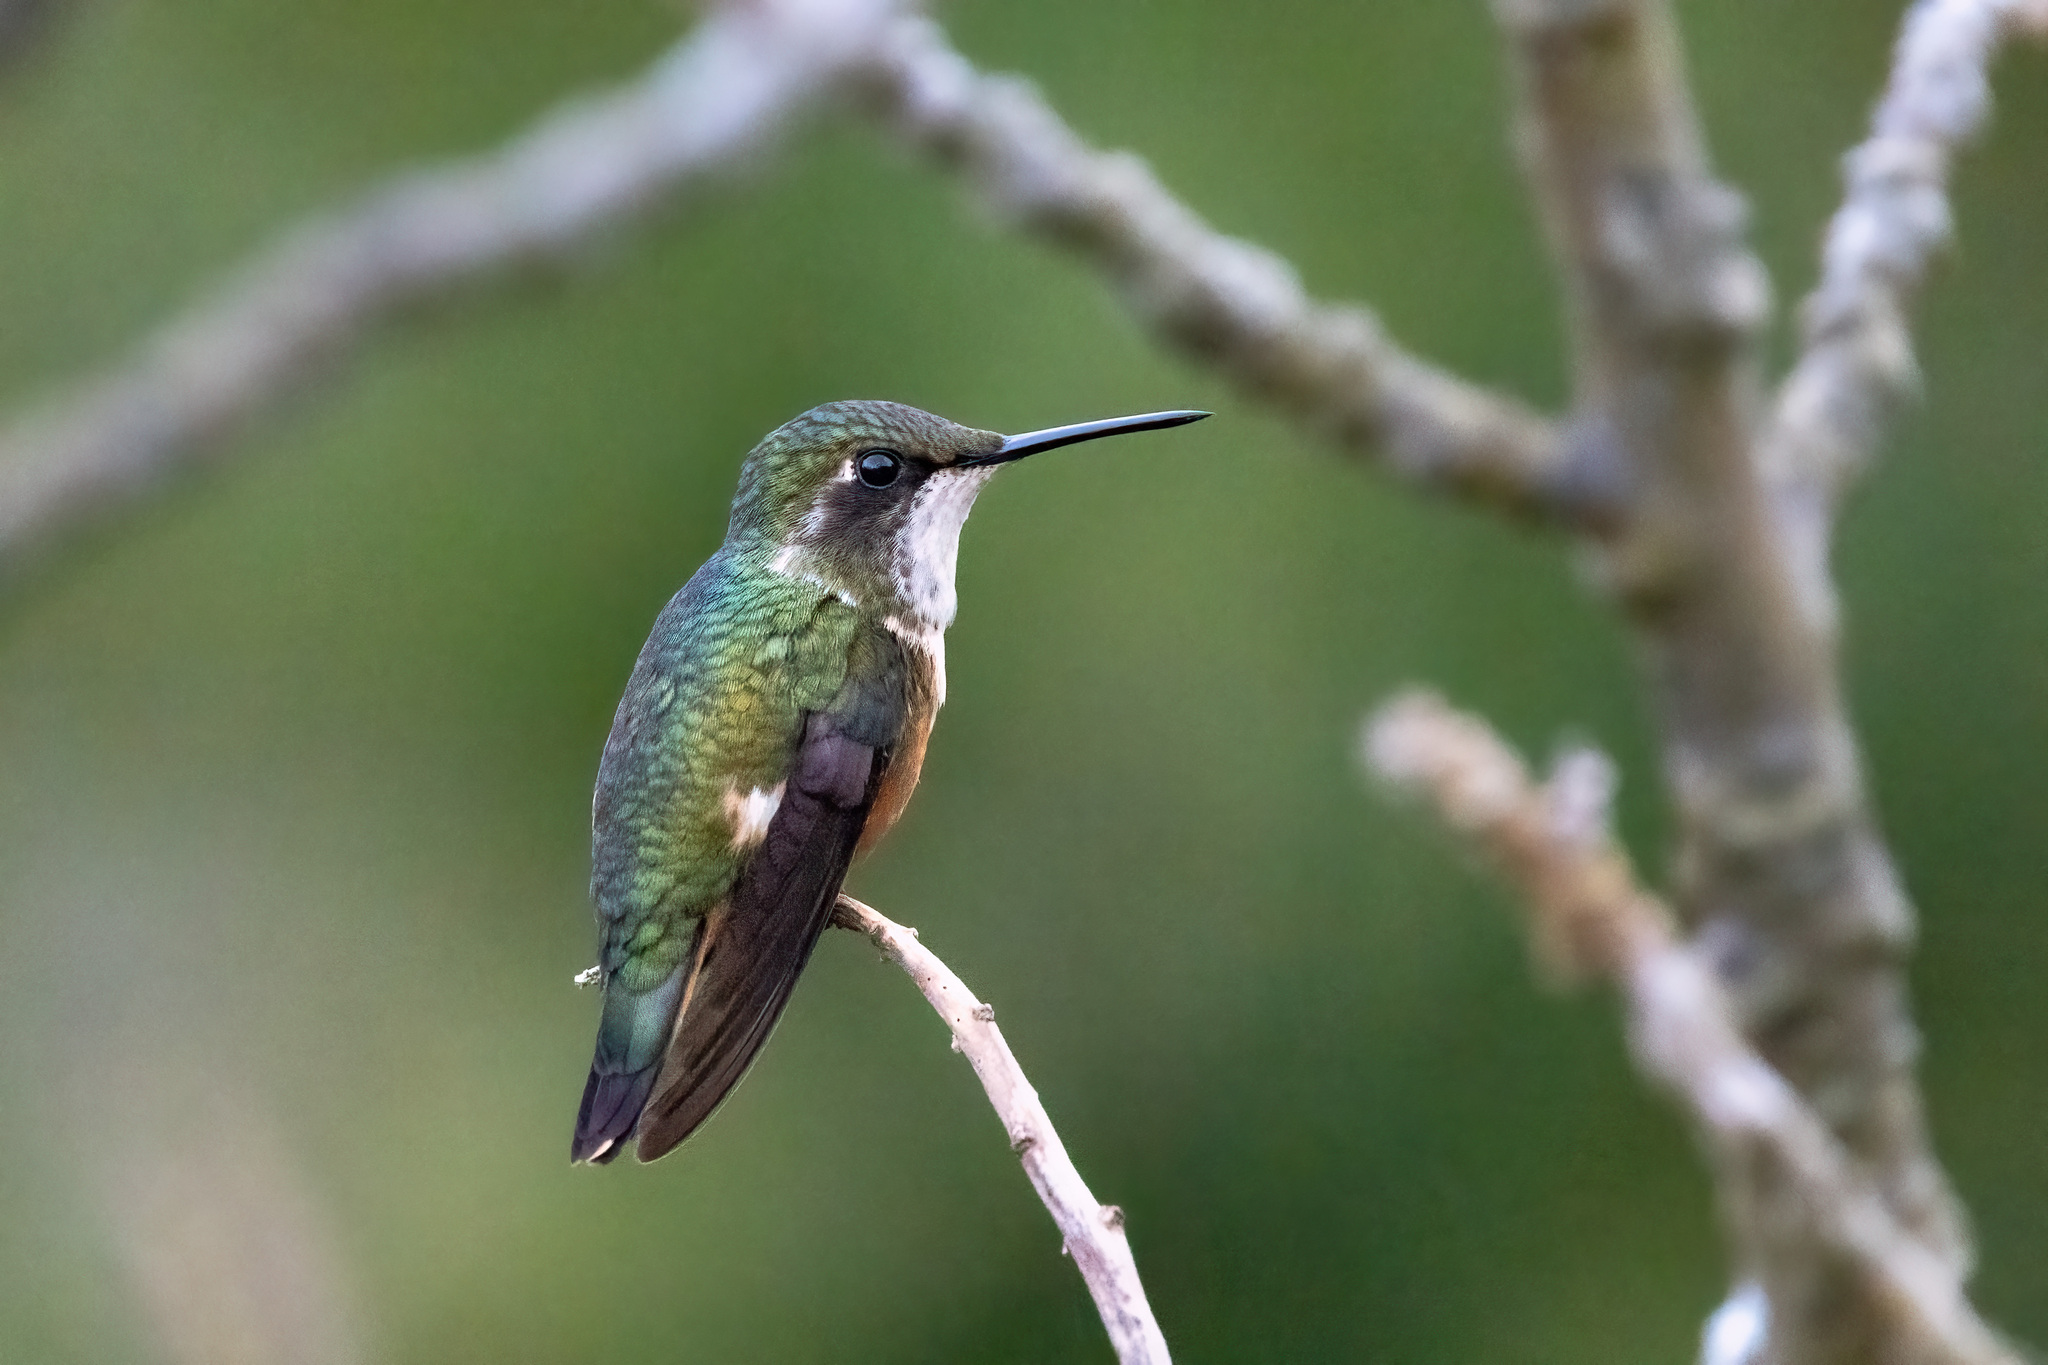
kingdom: Animalia
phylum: Chordata
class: Aves
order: Apodiformes
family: Trochilidae
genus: Calliphlox
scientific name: Calliphlox bryantae
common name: Magenta-throated woodstar
